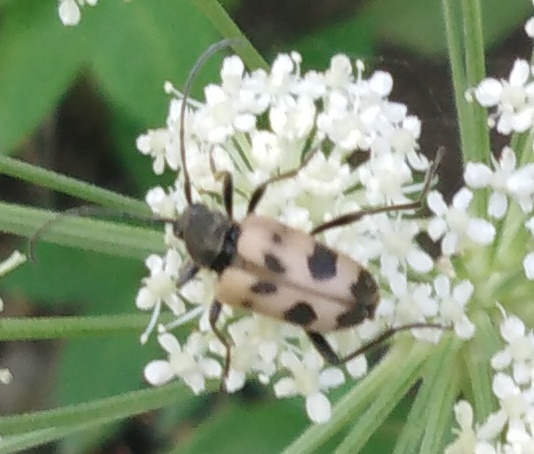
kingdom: Animalia
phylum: Arthropoda
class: Insecta
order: Coleoptera
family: Cerambycidae
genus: Pachytodes
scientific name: Pachytodes cerambyciformis
